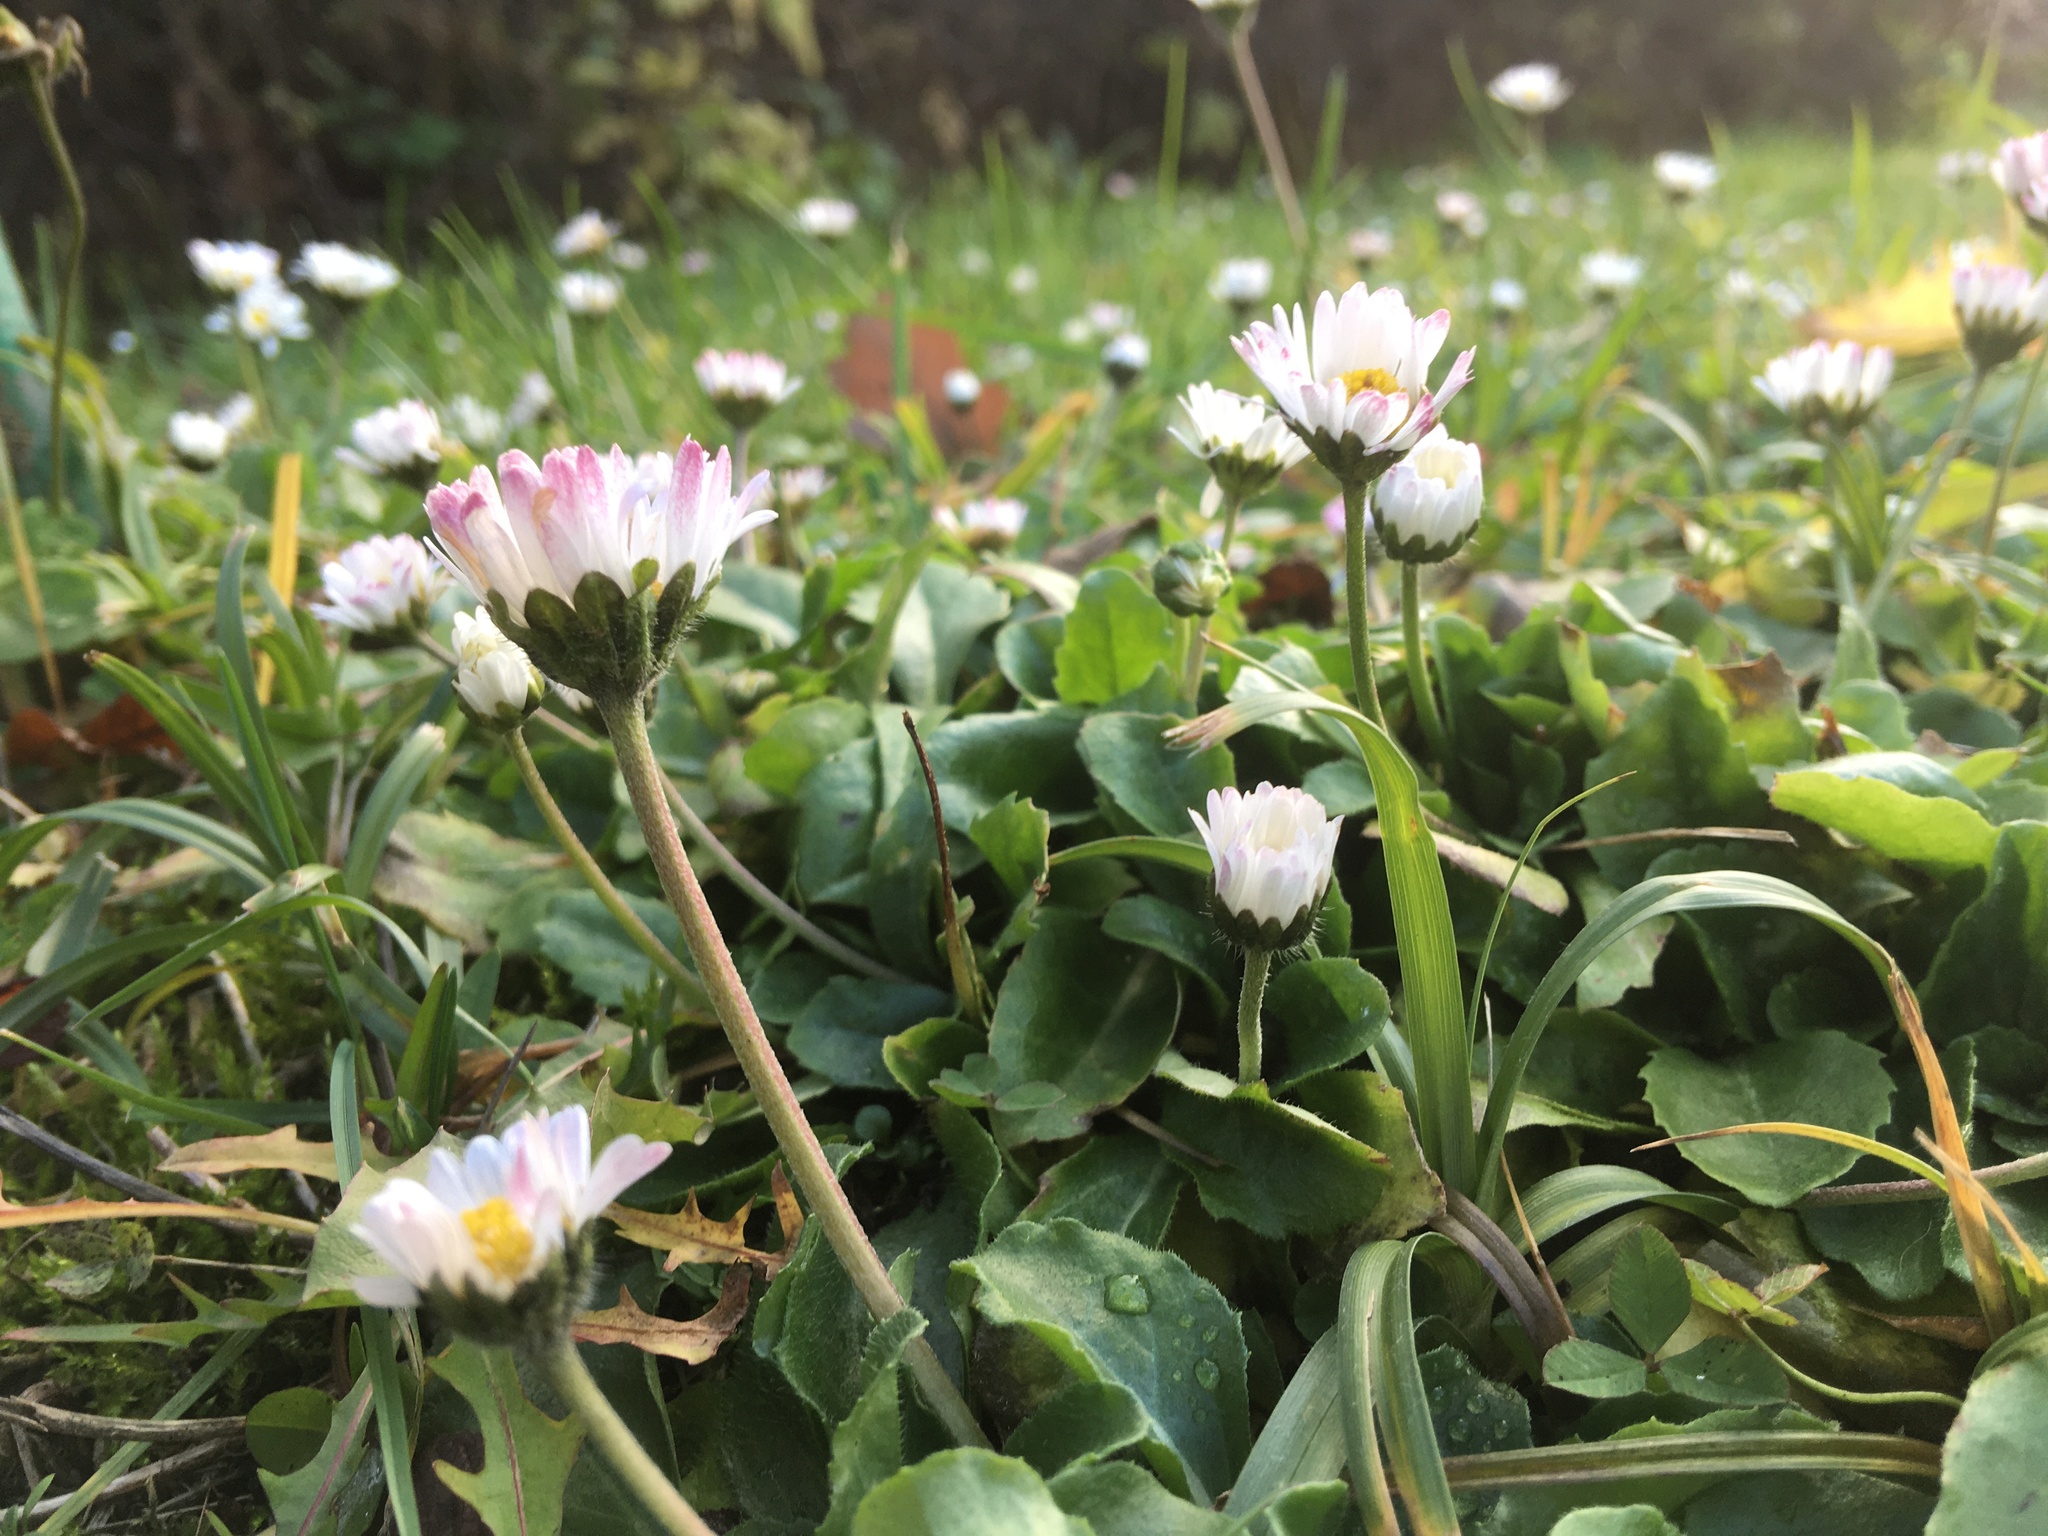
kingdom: Plantae
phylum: Tracheophyta
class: Magnoliopsida
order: Asterales
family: Asteraceae
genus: Bellis
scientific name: Bellis perennis
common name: Lawndaisy
